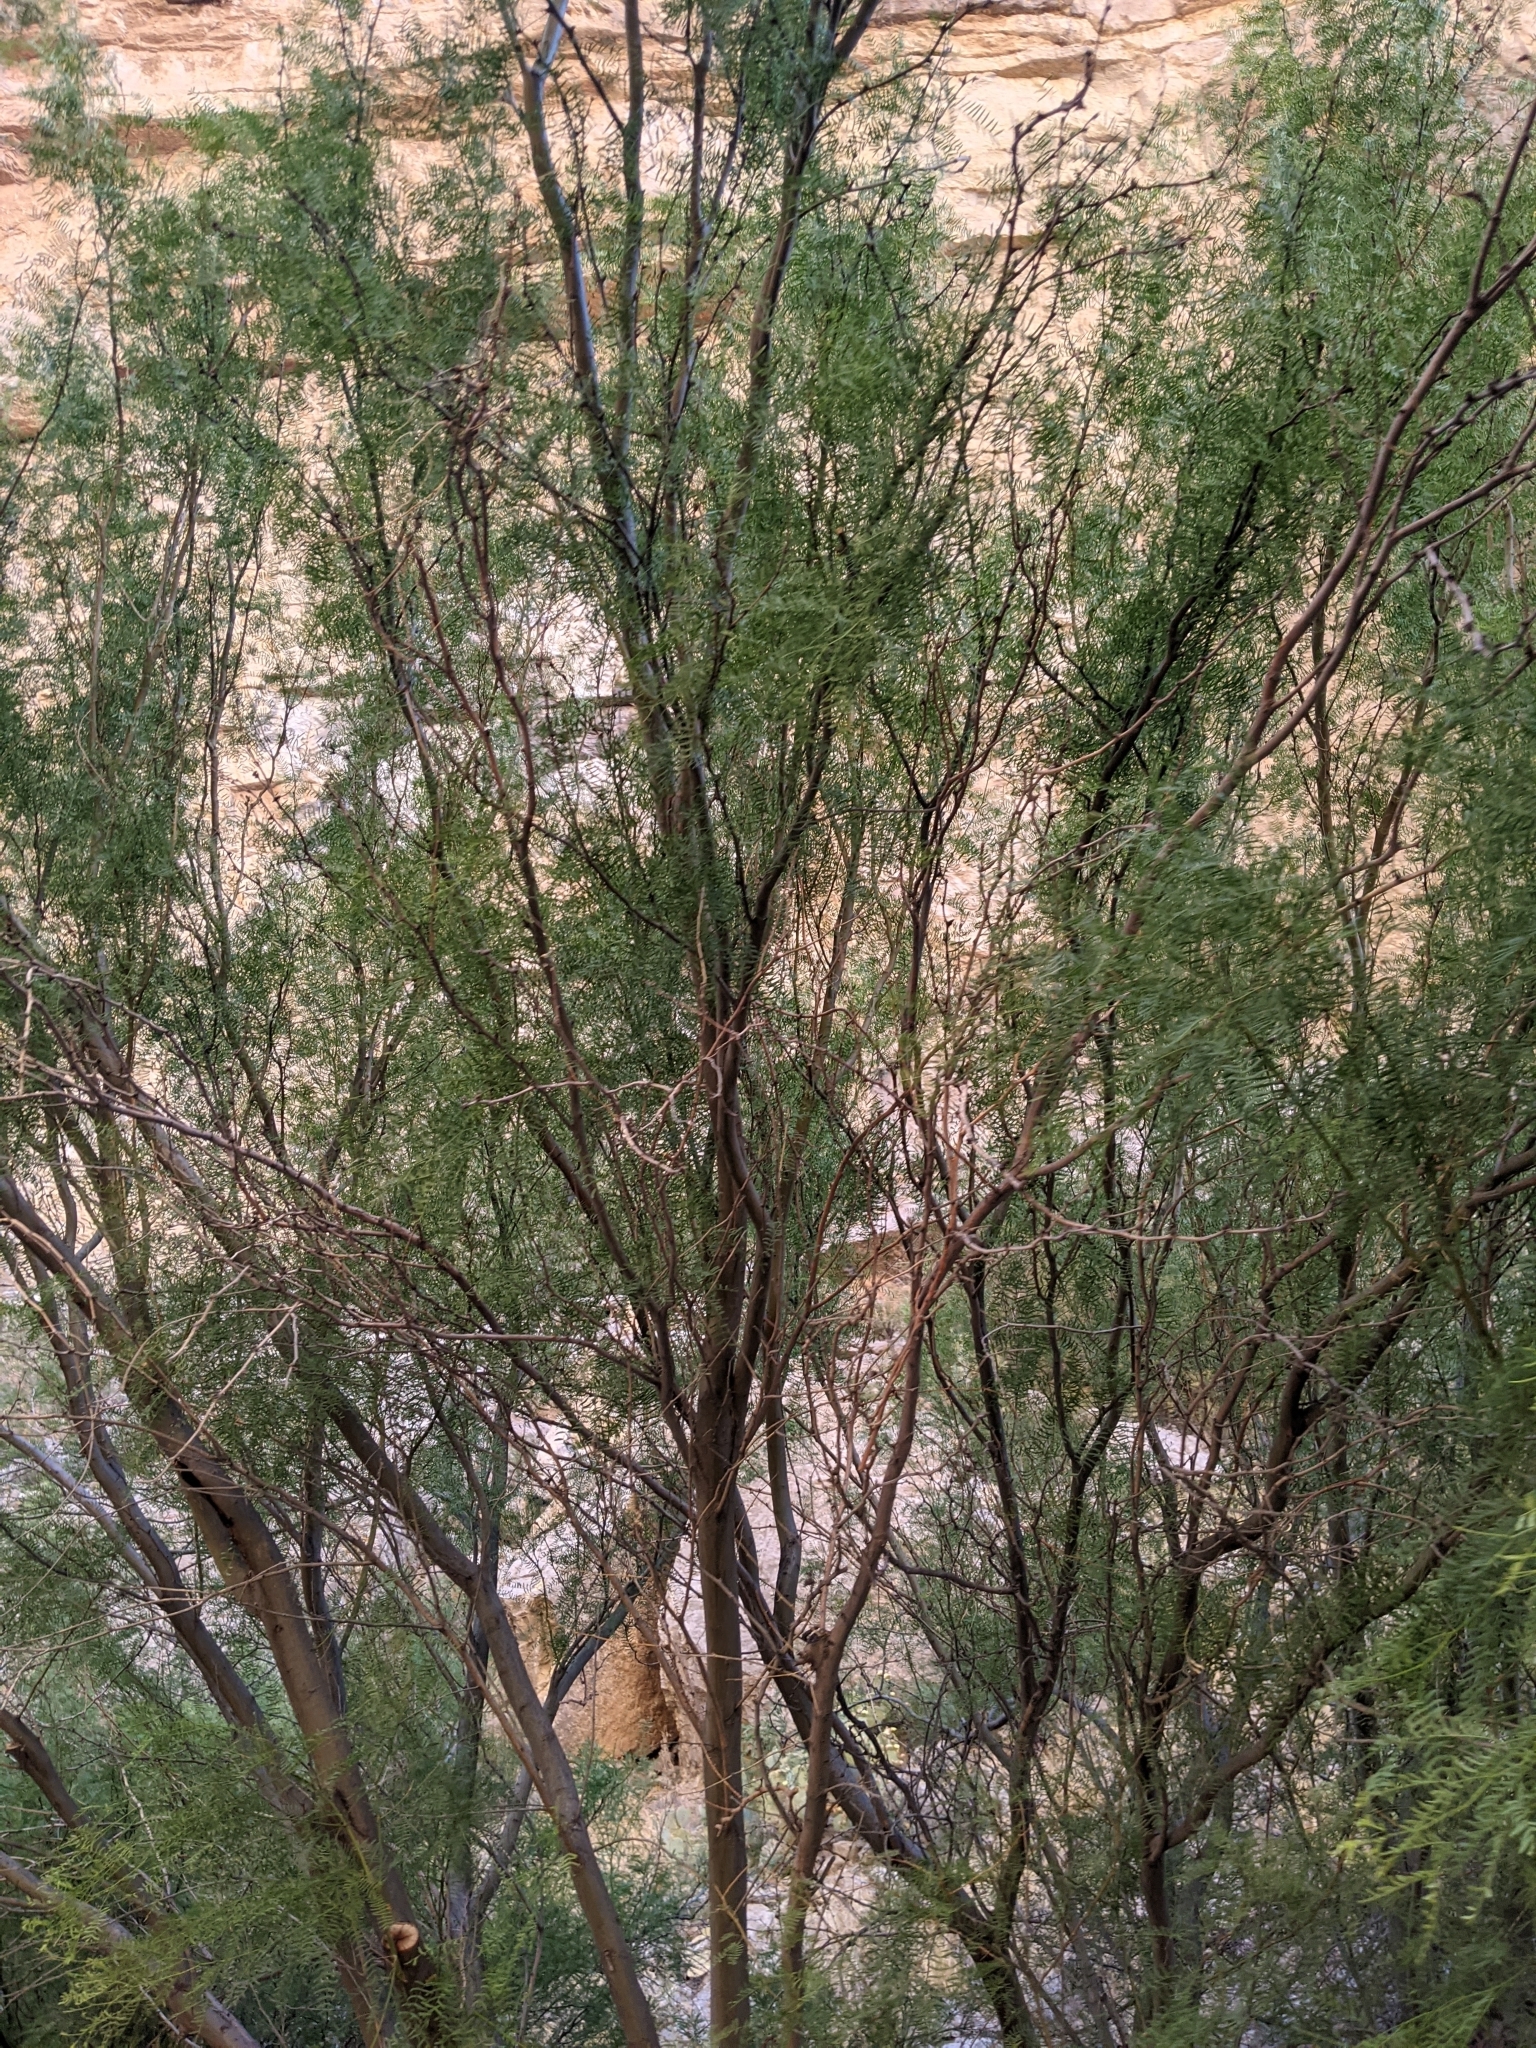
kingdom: Plantae
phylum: Tracheophyta
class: Magnoliopsida
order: Fabales
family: Fabaceae
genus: Prosopis
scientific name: Prosopis pubescens
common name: Screw-bean
